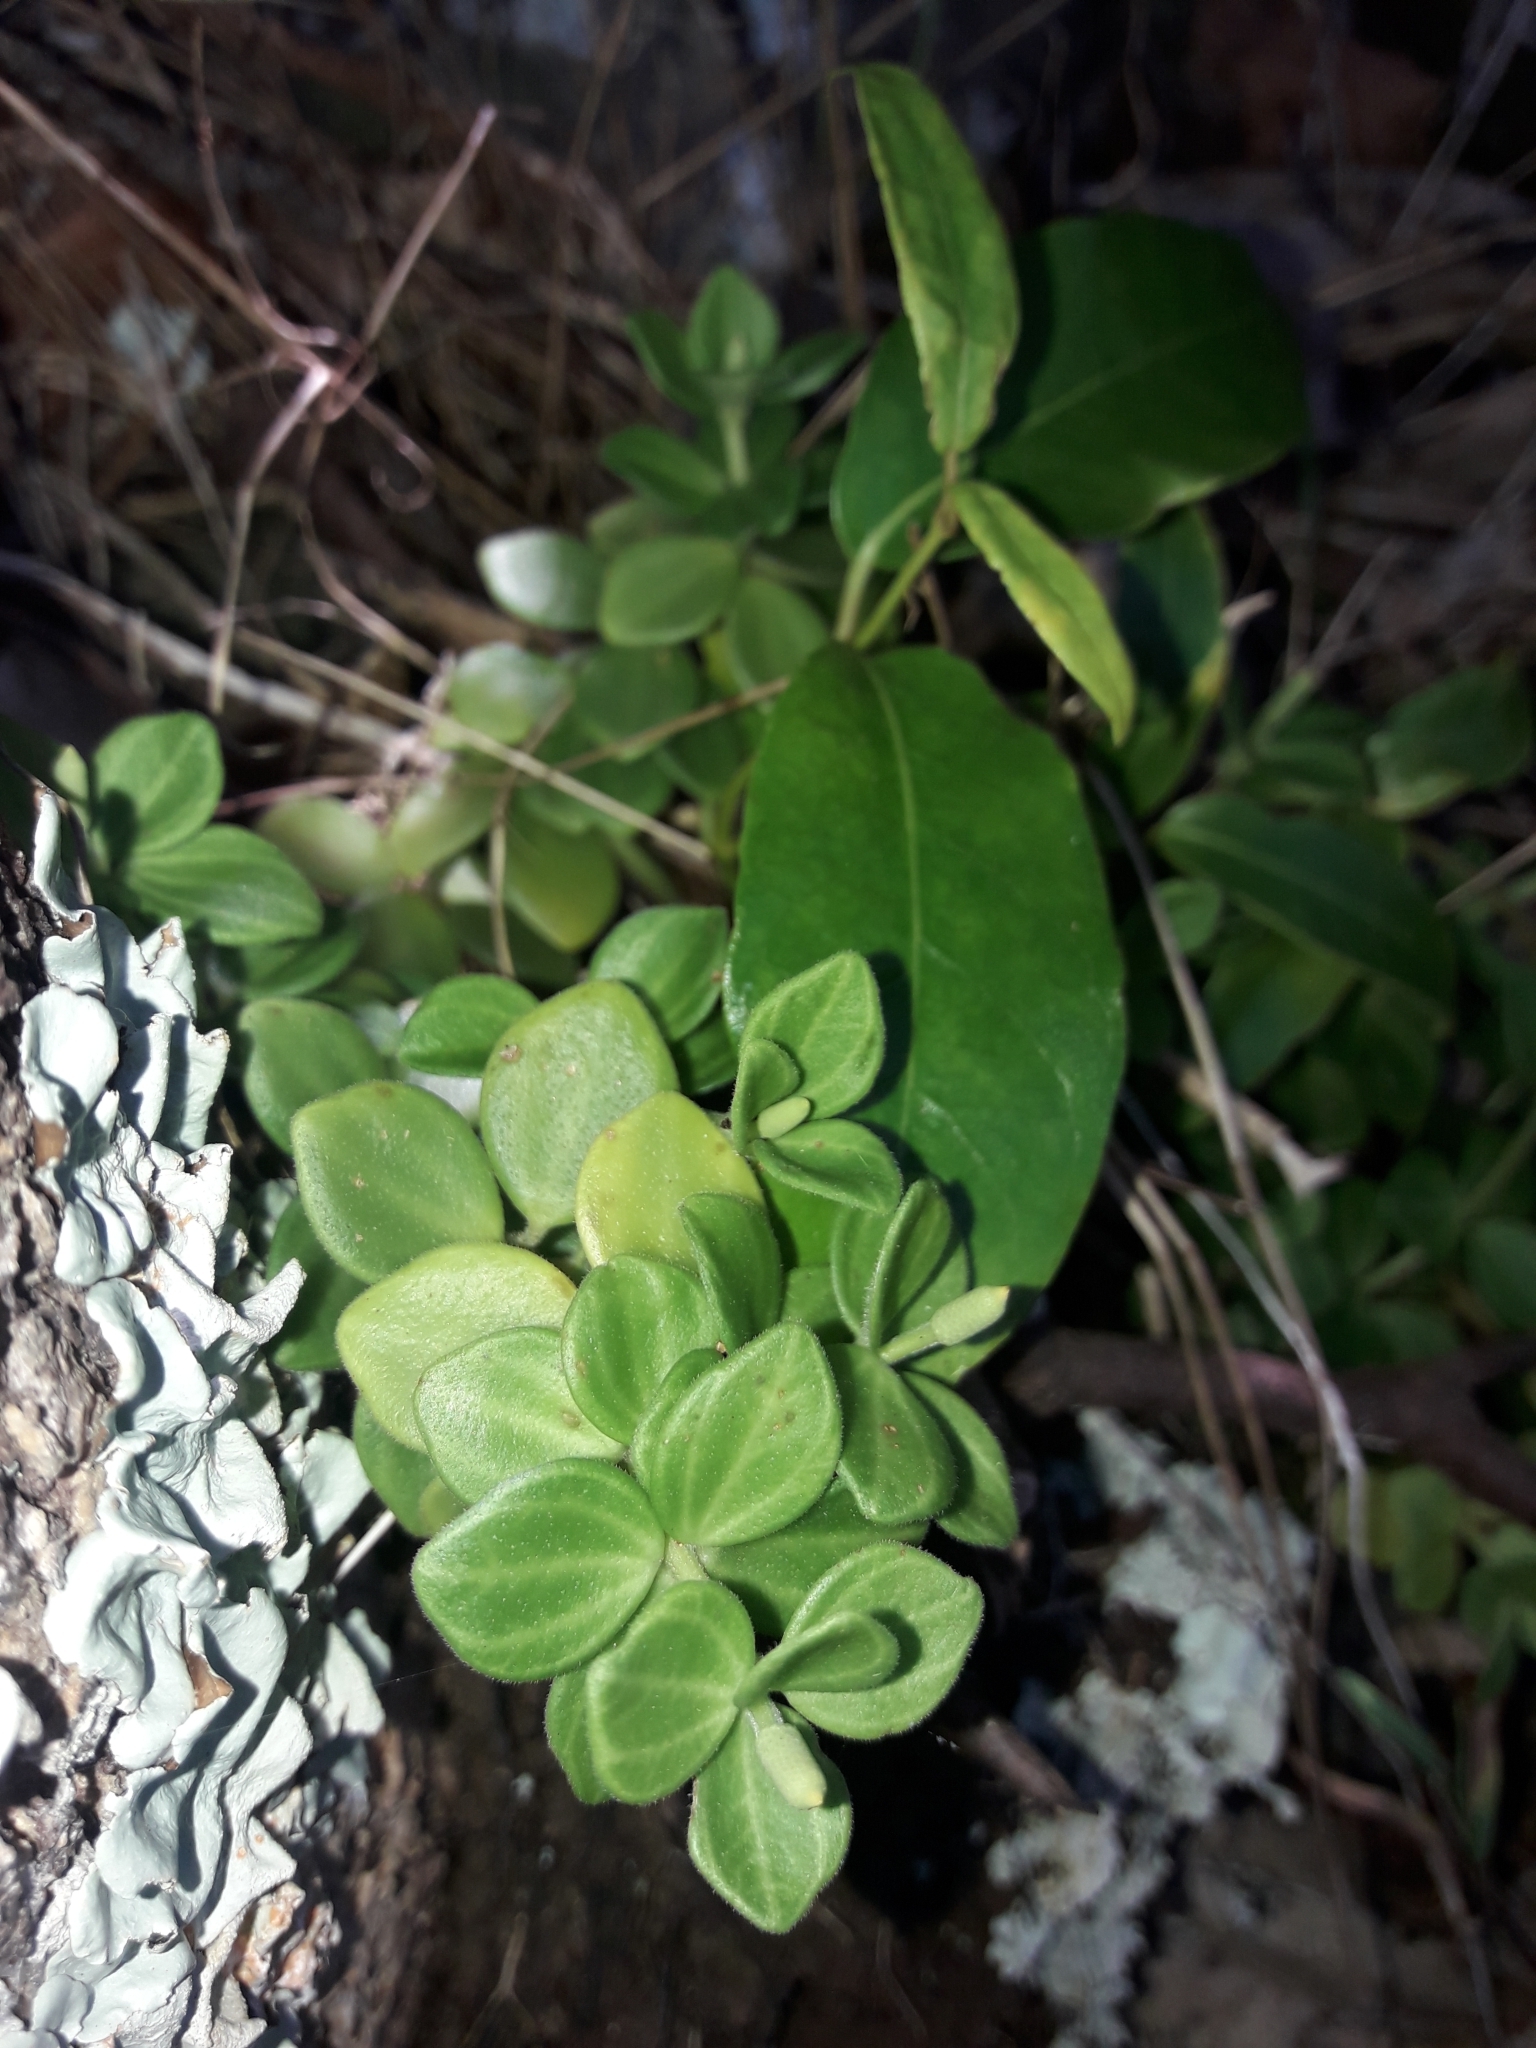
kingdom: Plantae
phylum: Tracheophyta
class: Magnoliopsida
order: Piperales
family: Piperaceae
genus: Peperomia
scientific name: Peperomia tetraphylla
